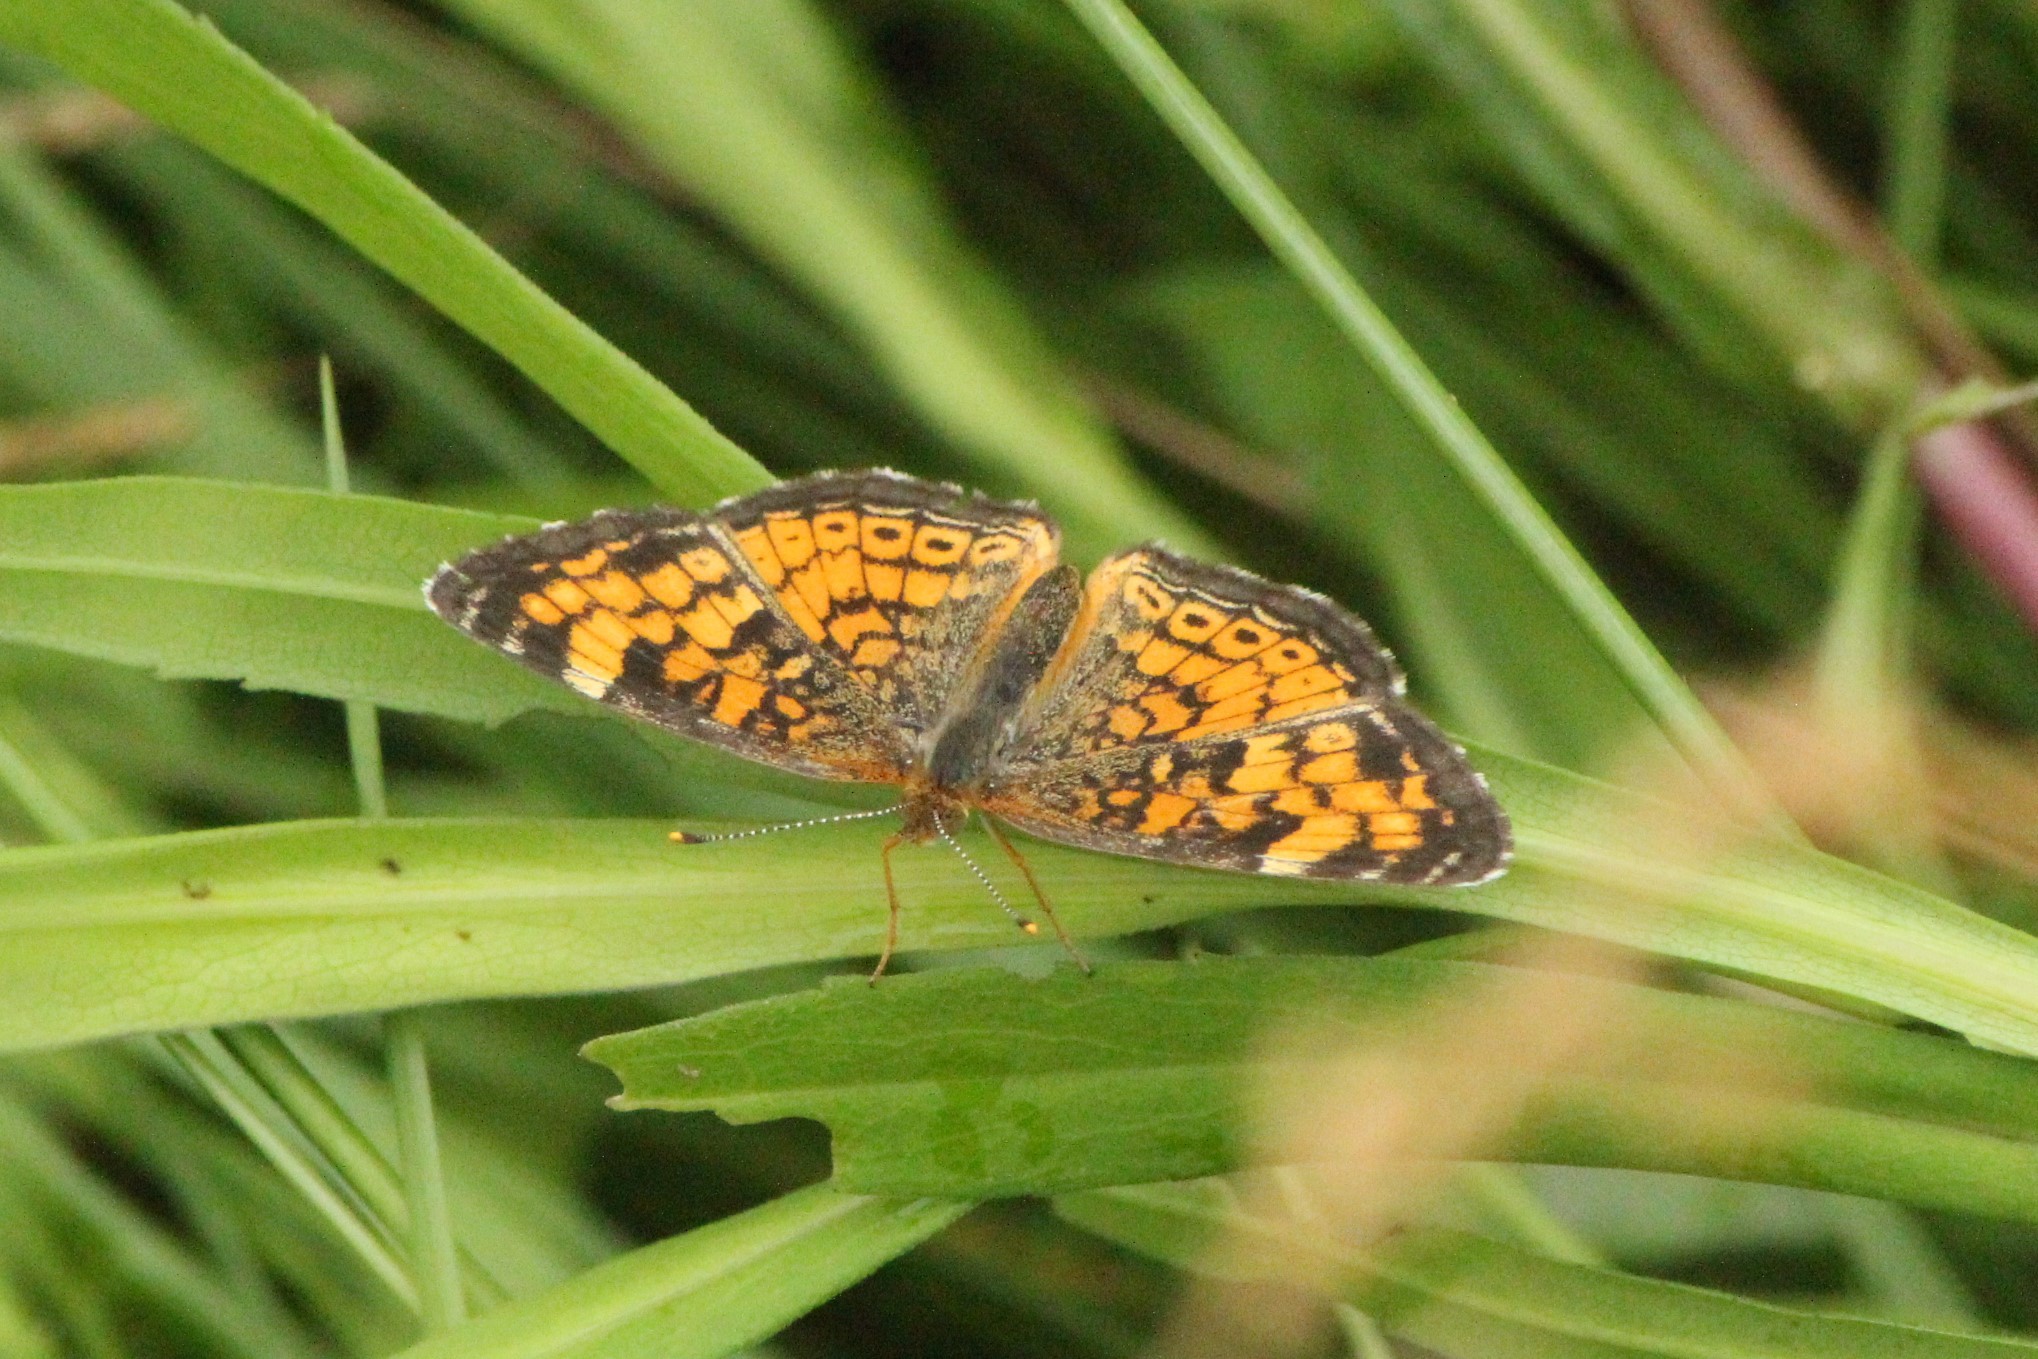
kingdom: Animalia
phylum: Arthropoda
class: Insecta
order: Lepidoptera
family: Nymphalidae
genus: Phyciodes
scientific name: Phyciodes tharos
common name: Pearl crescent
